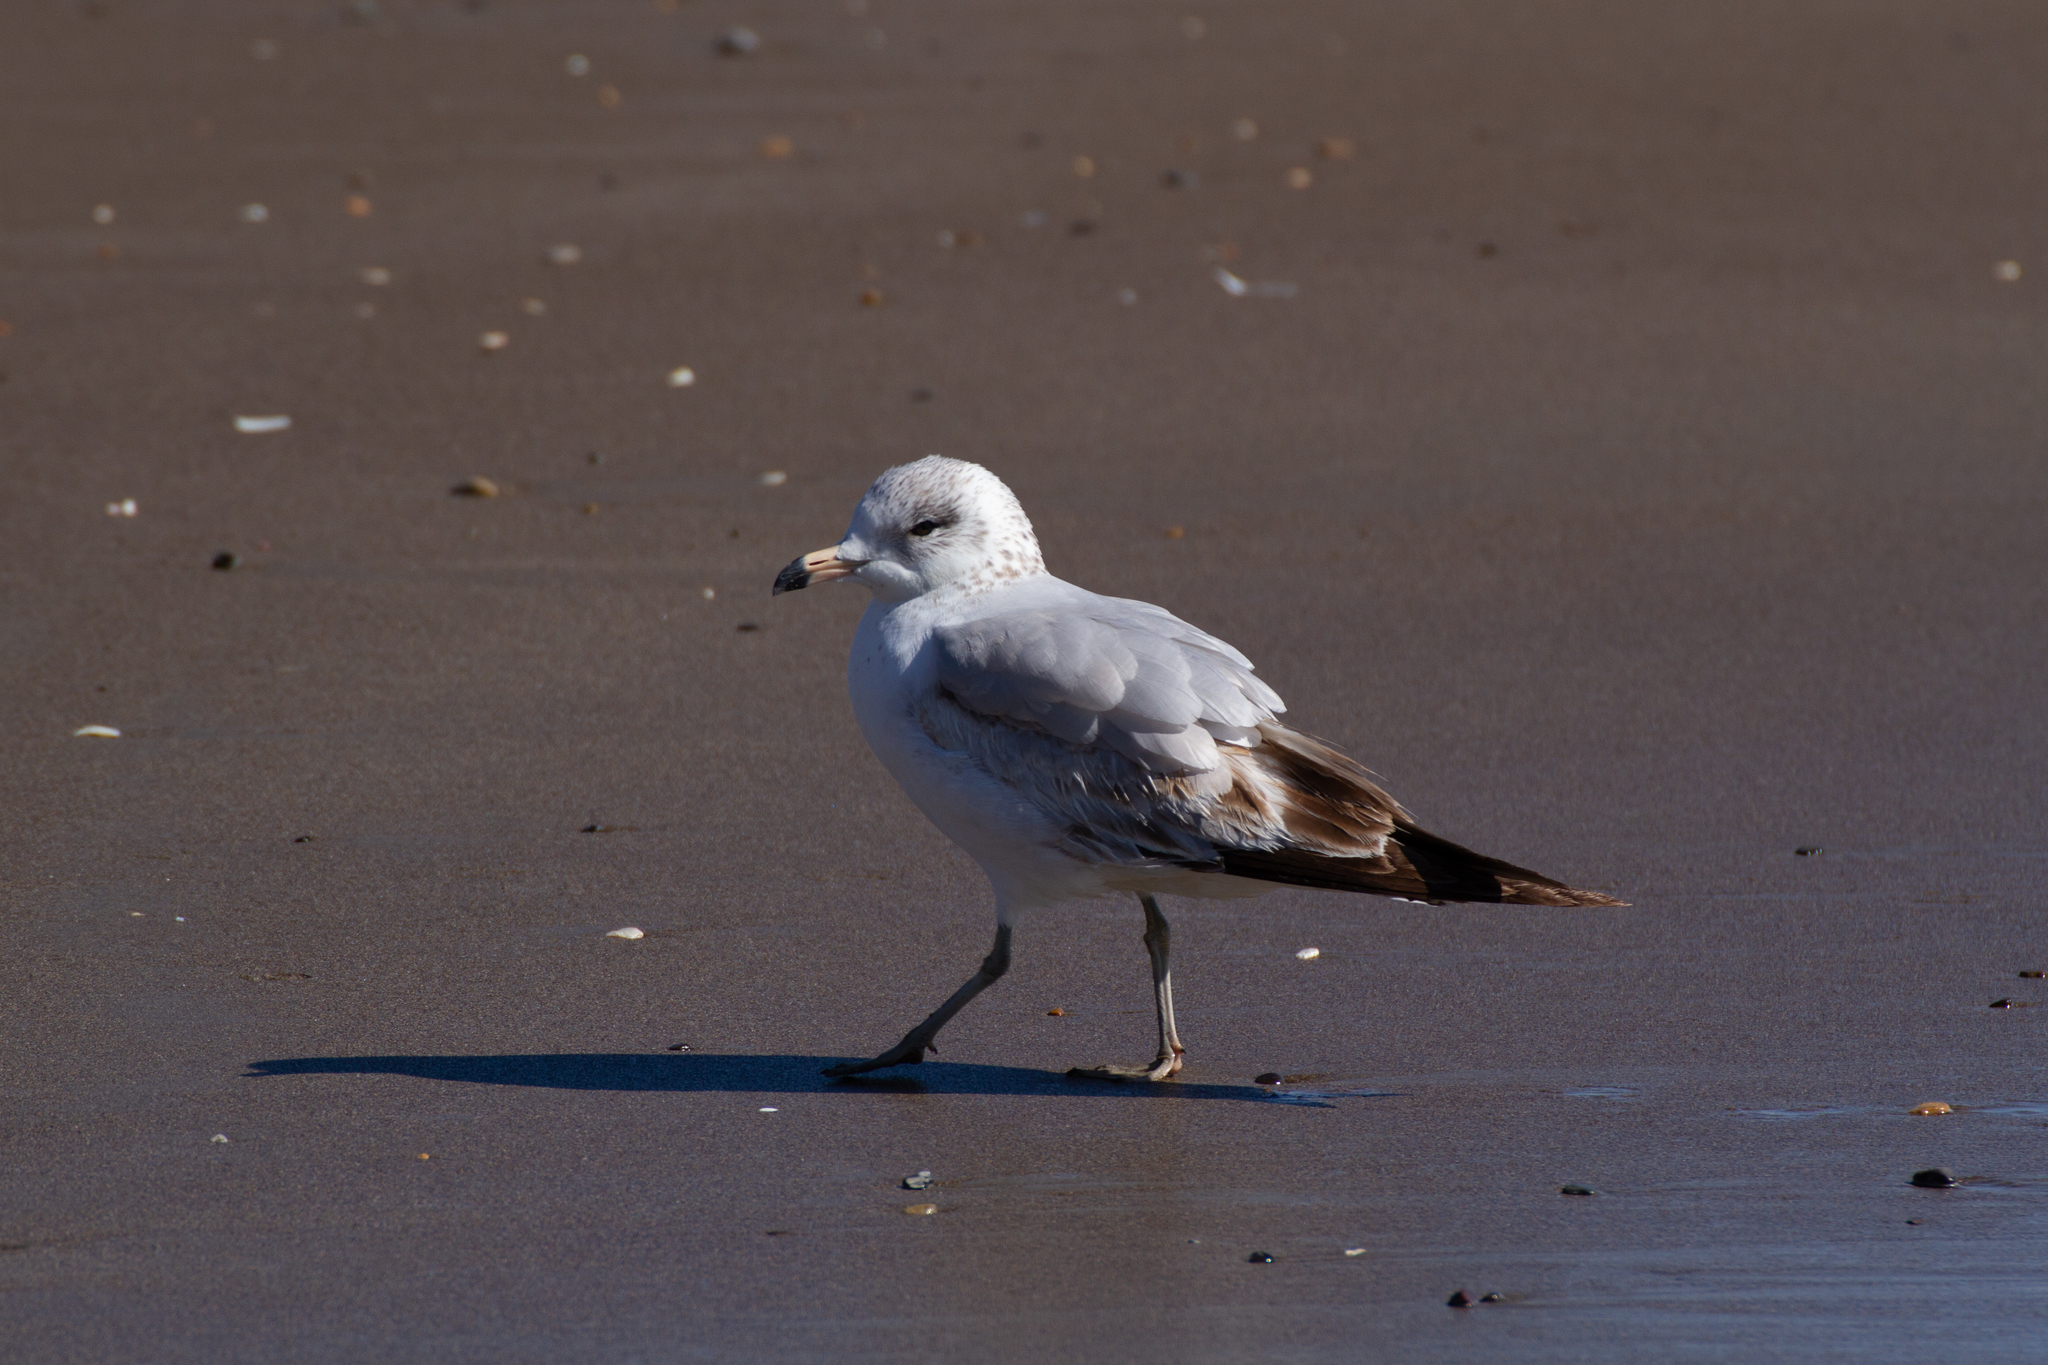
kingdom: Animalia
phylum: Chordata
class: Aves
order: Charadriiformes
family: Laridae
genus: Larus
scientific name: Larus delawarensis
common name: Ring-billed gull
